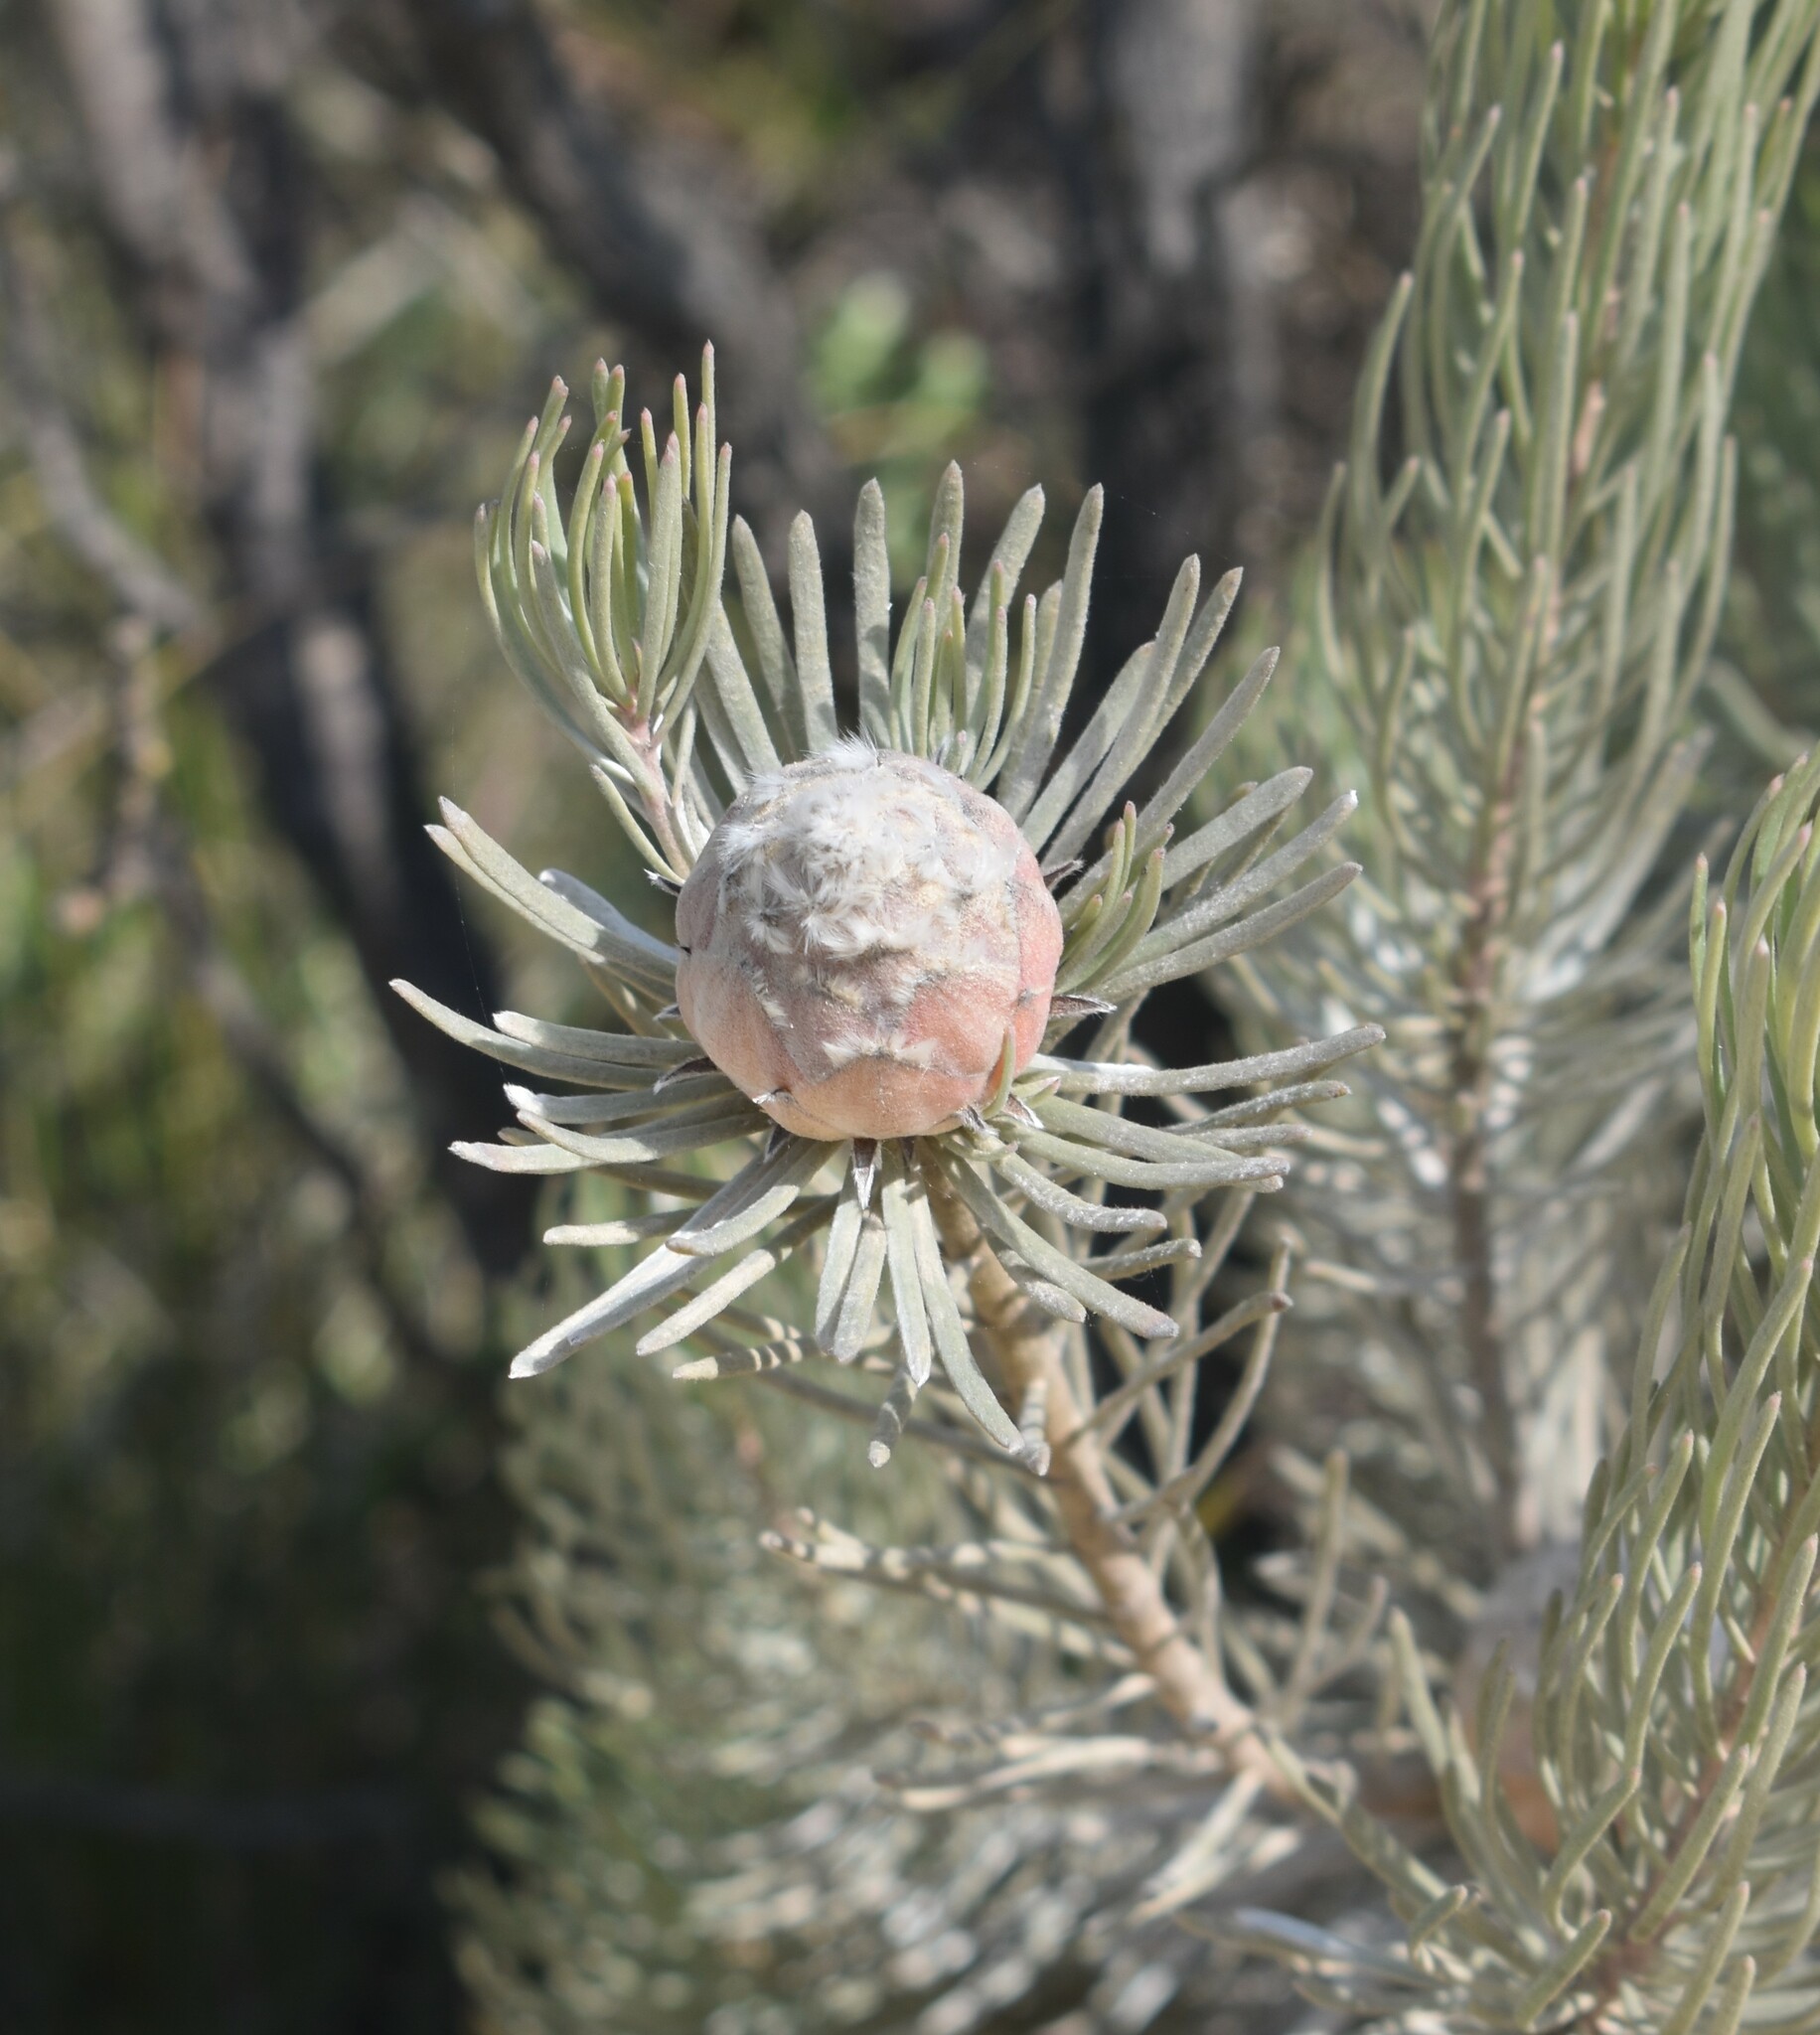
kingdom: Plantae
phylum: Tracheophyta
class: Magnoliopsida
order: Proteales
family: Proteaceae
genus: Leucadendron
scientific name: Leucadendron album
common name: Linear-leaf conebush
